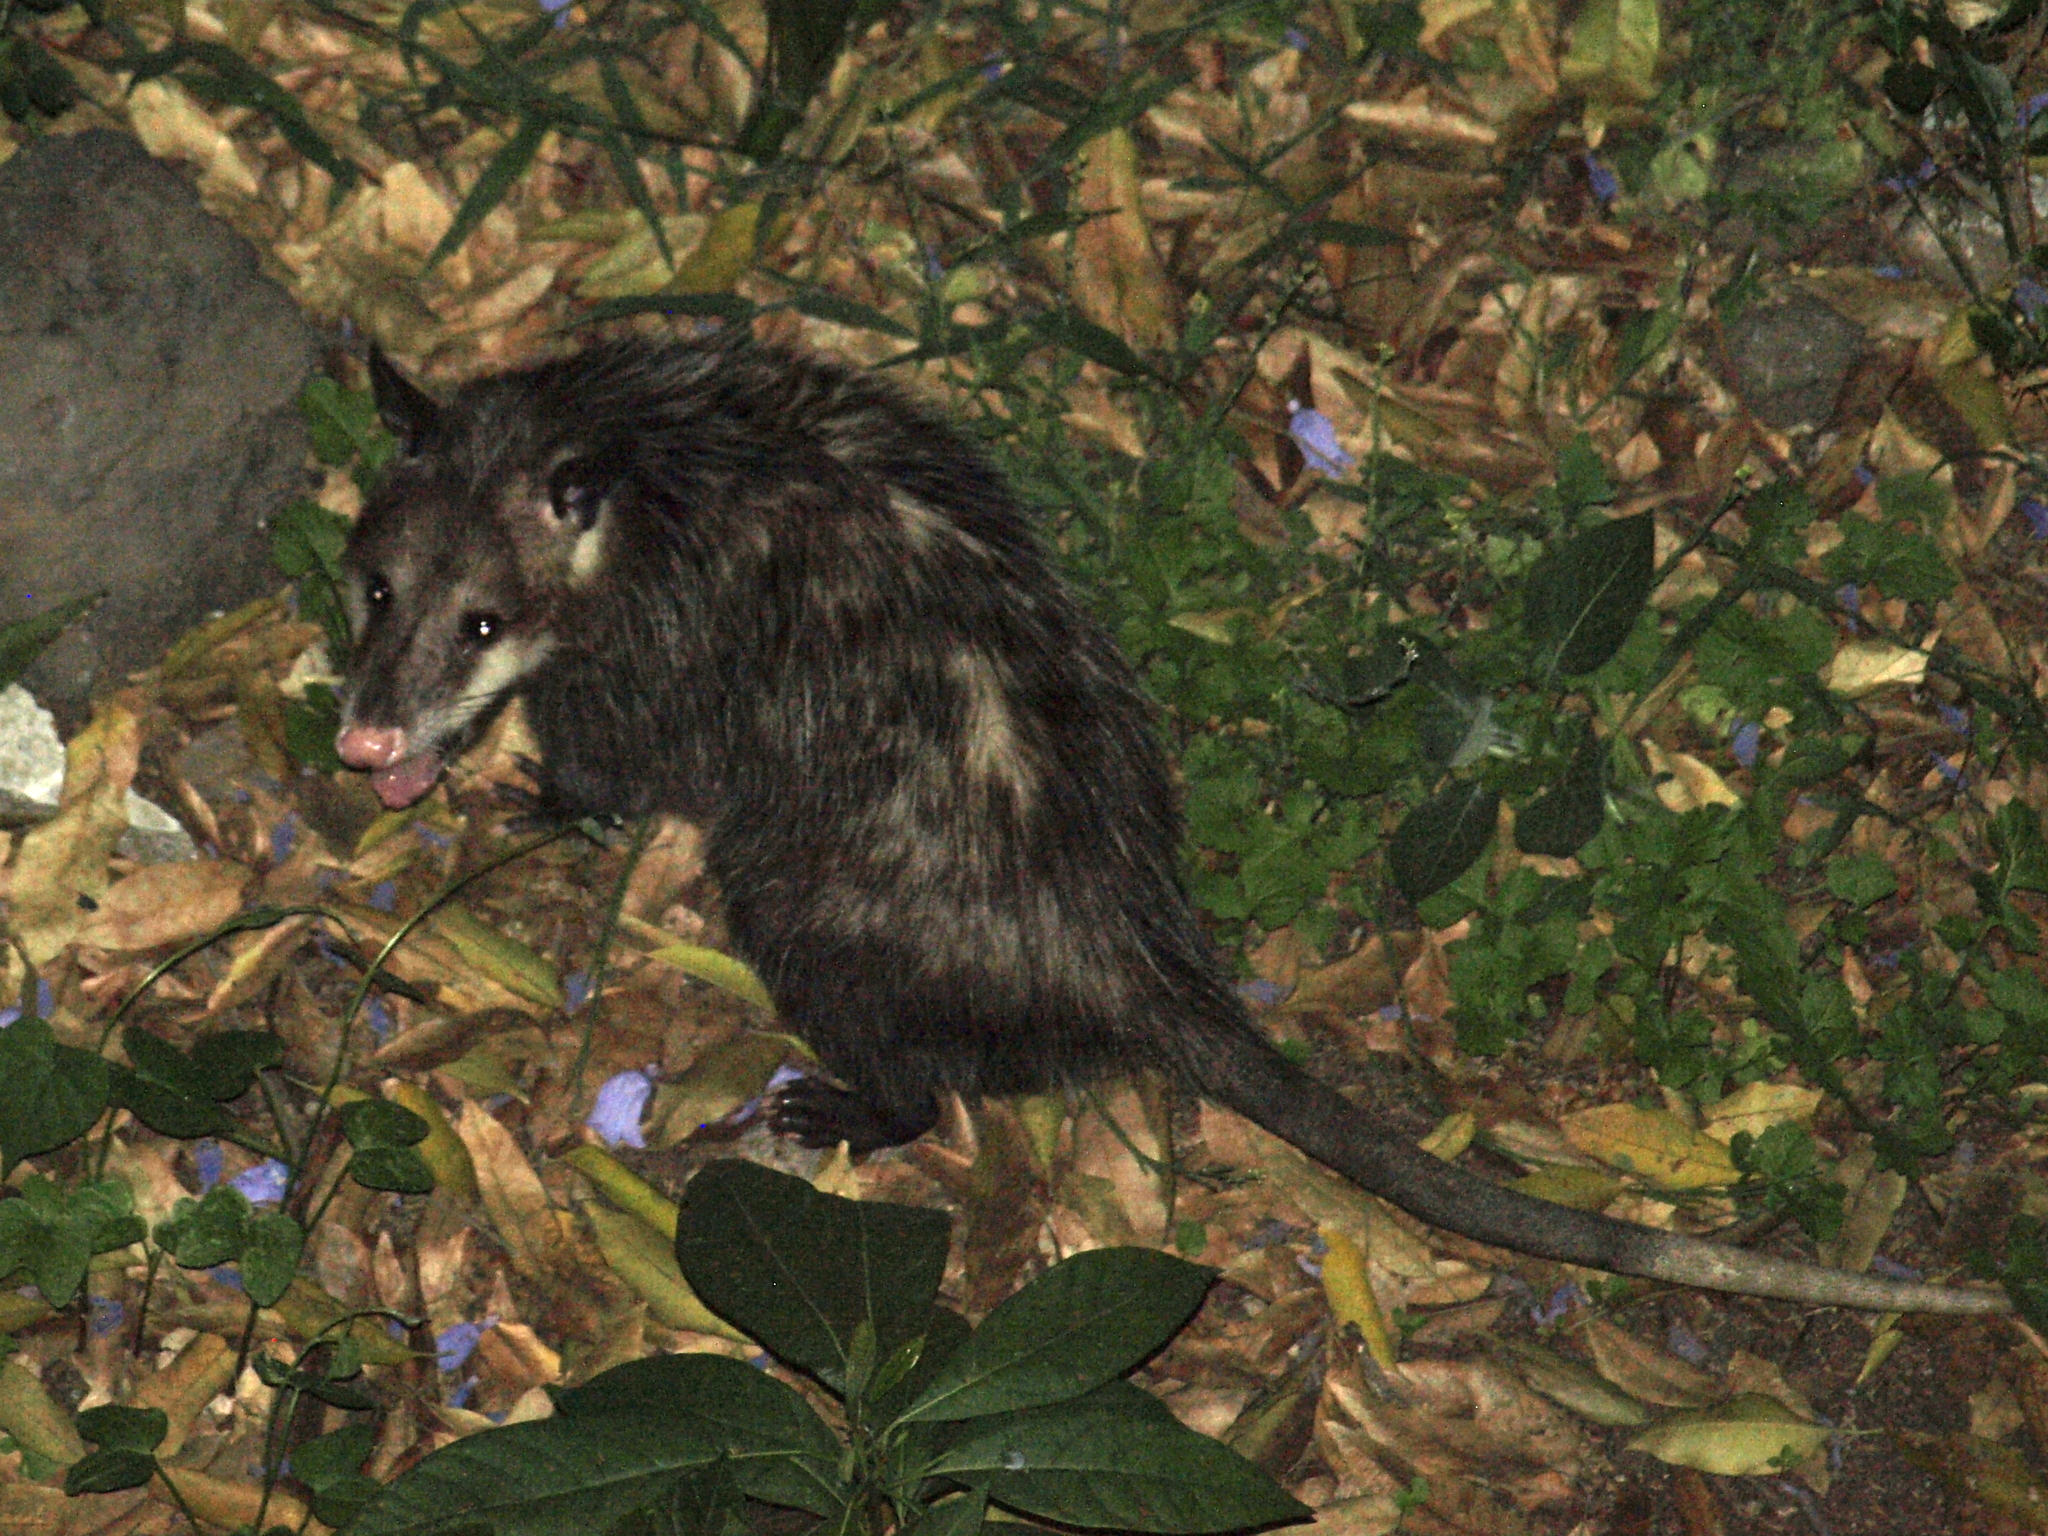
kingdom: Animalia
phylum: Chordata
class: Mammalia
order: Didelphimorphia
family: Didelphidae
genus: Didelphis
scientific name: Didelphis virginiana
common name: Virginia opossum
